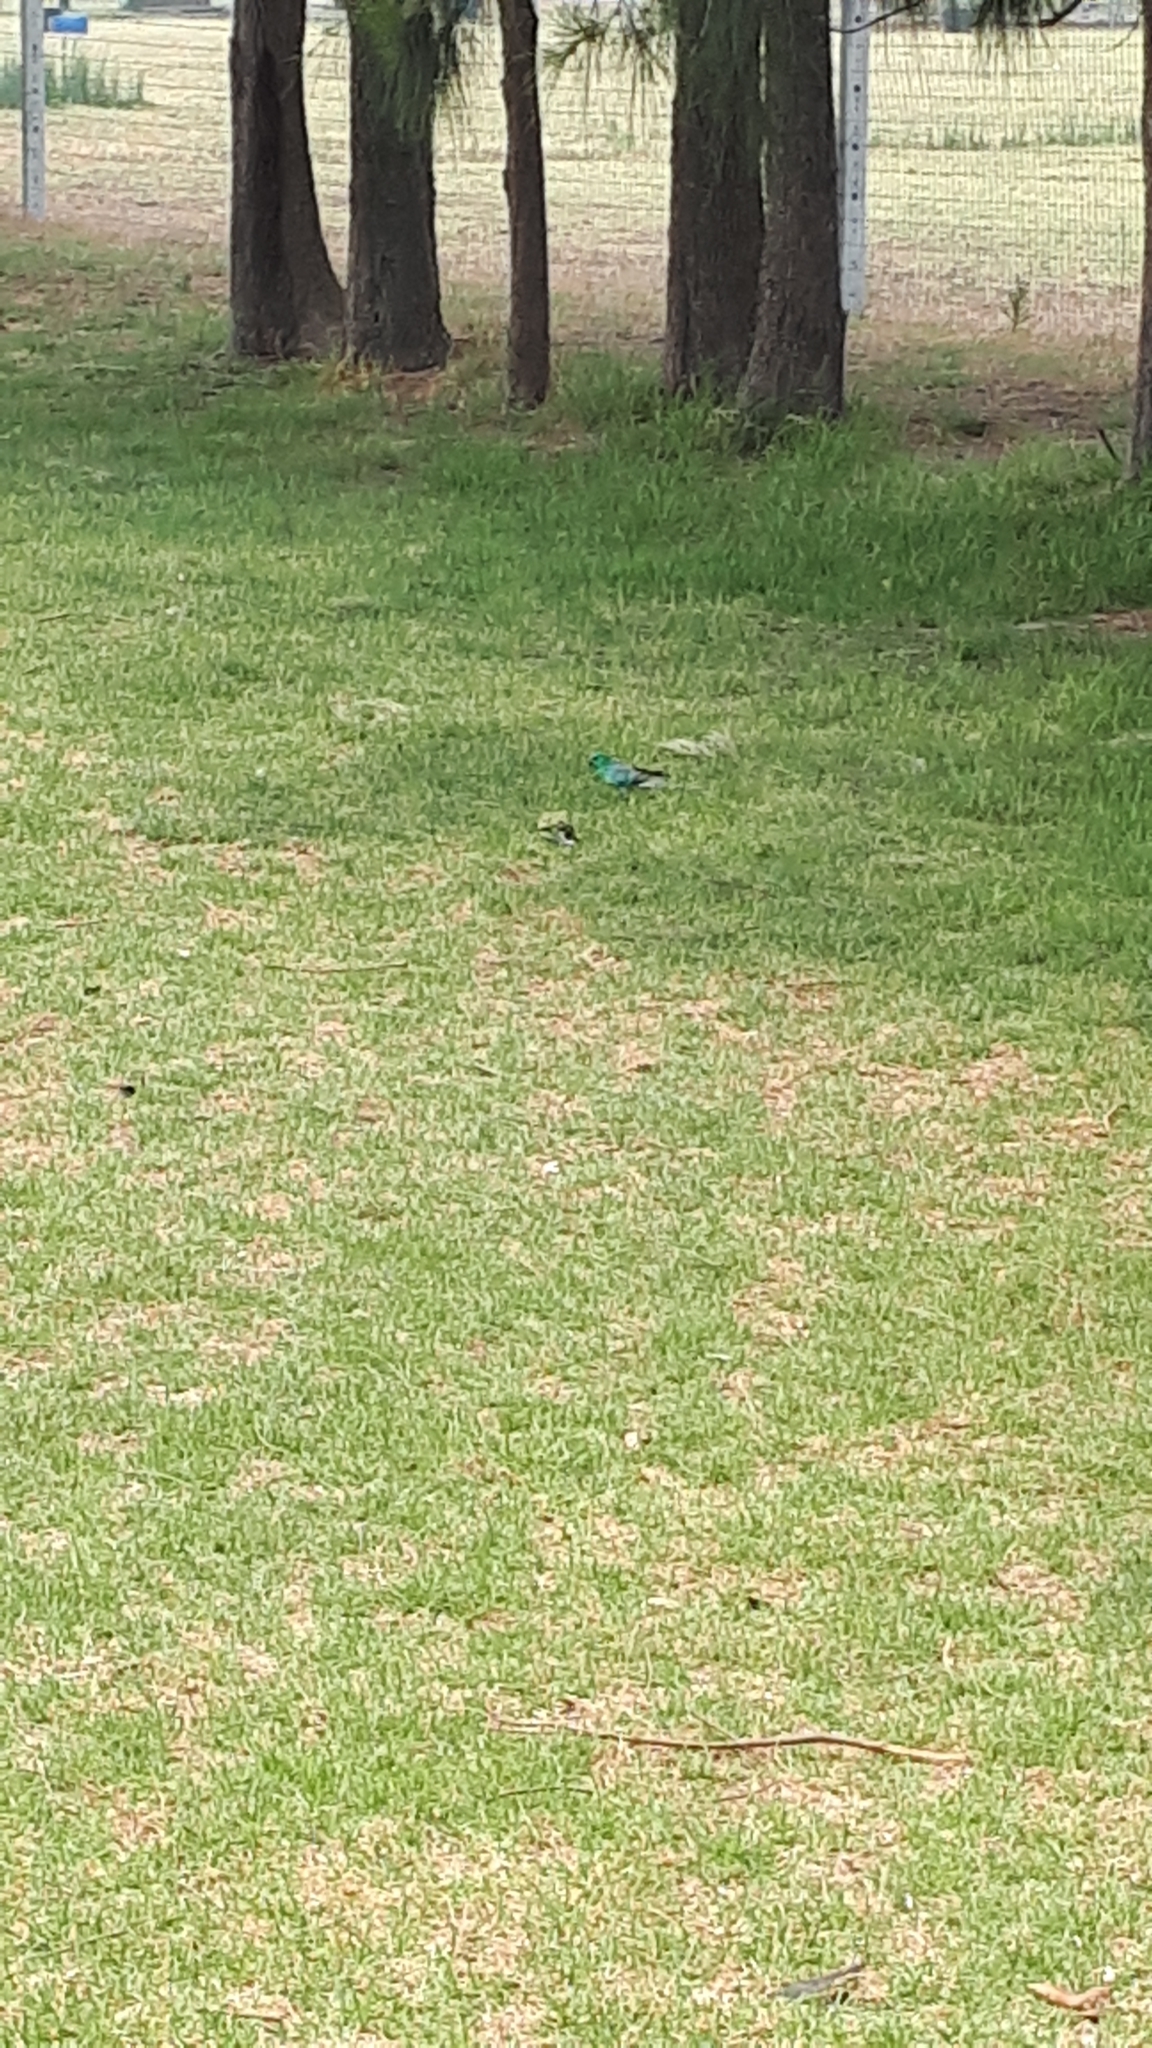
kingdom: Animalia
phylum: Chordata
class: Aves
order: Psittaciformes
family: Psittacidae
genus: Psephotus
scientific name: Psephotus haematonotus
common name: Red-rumped parrot
